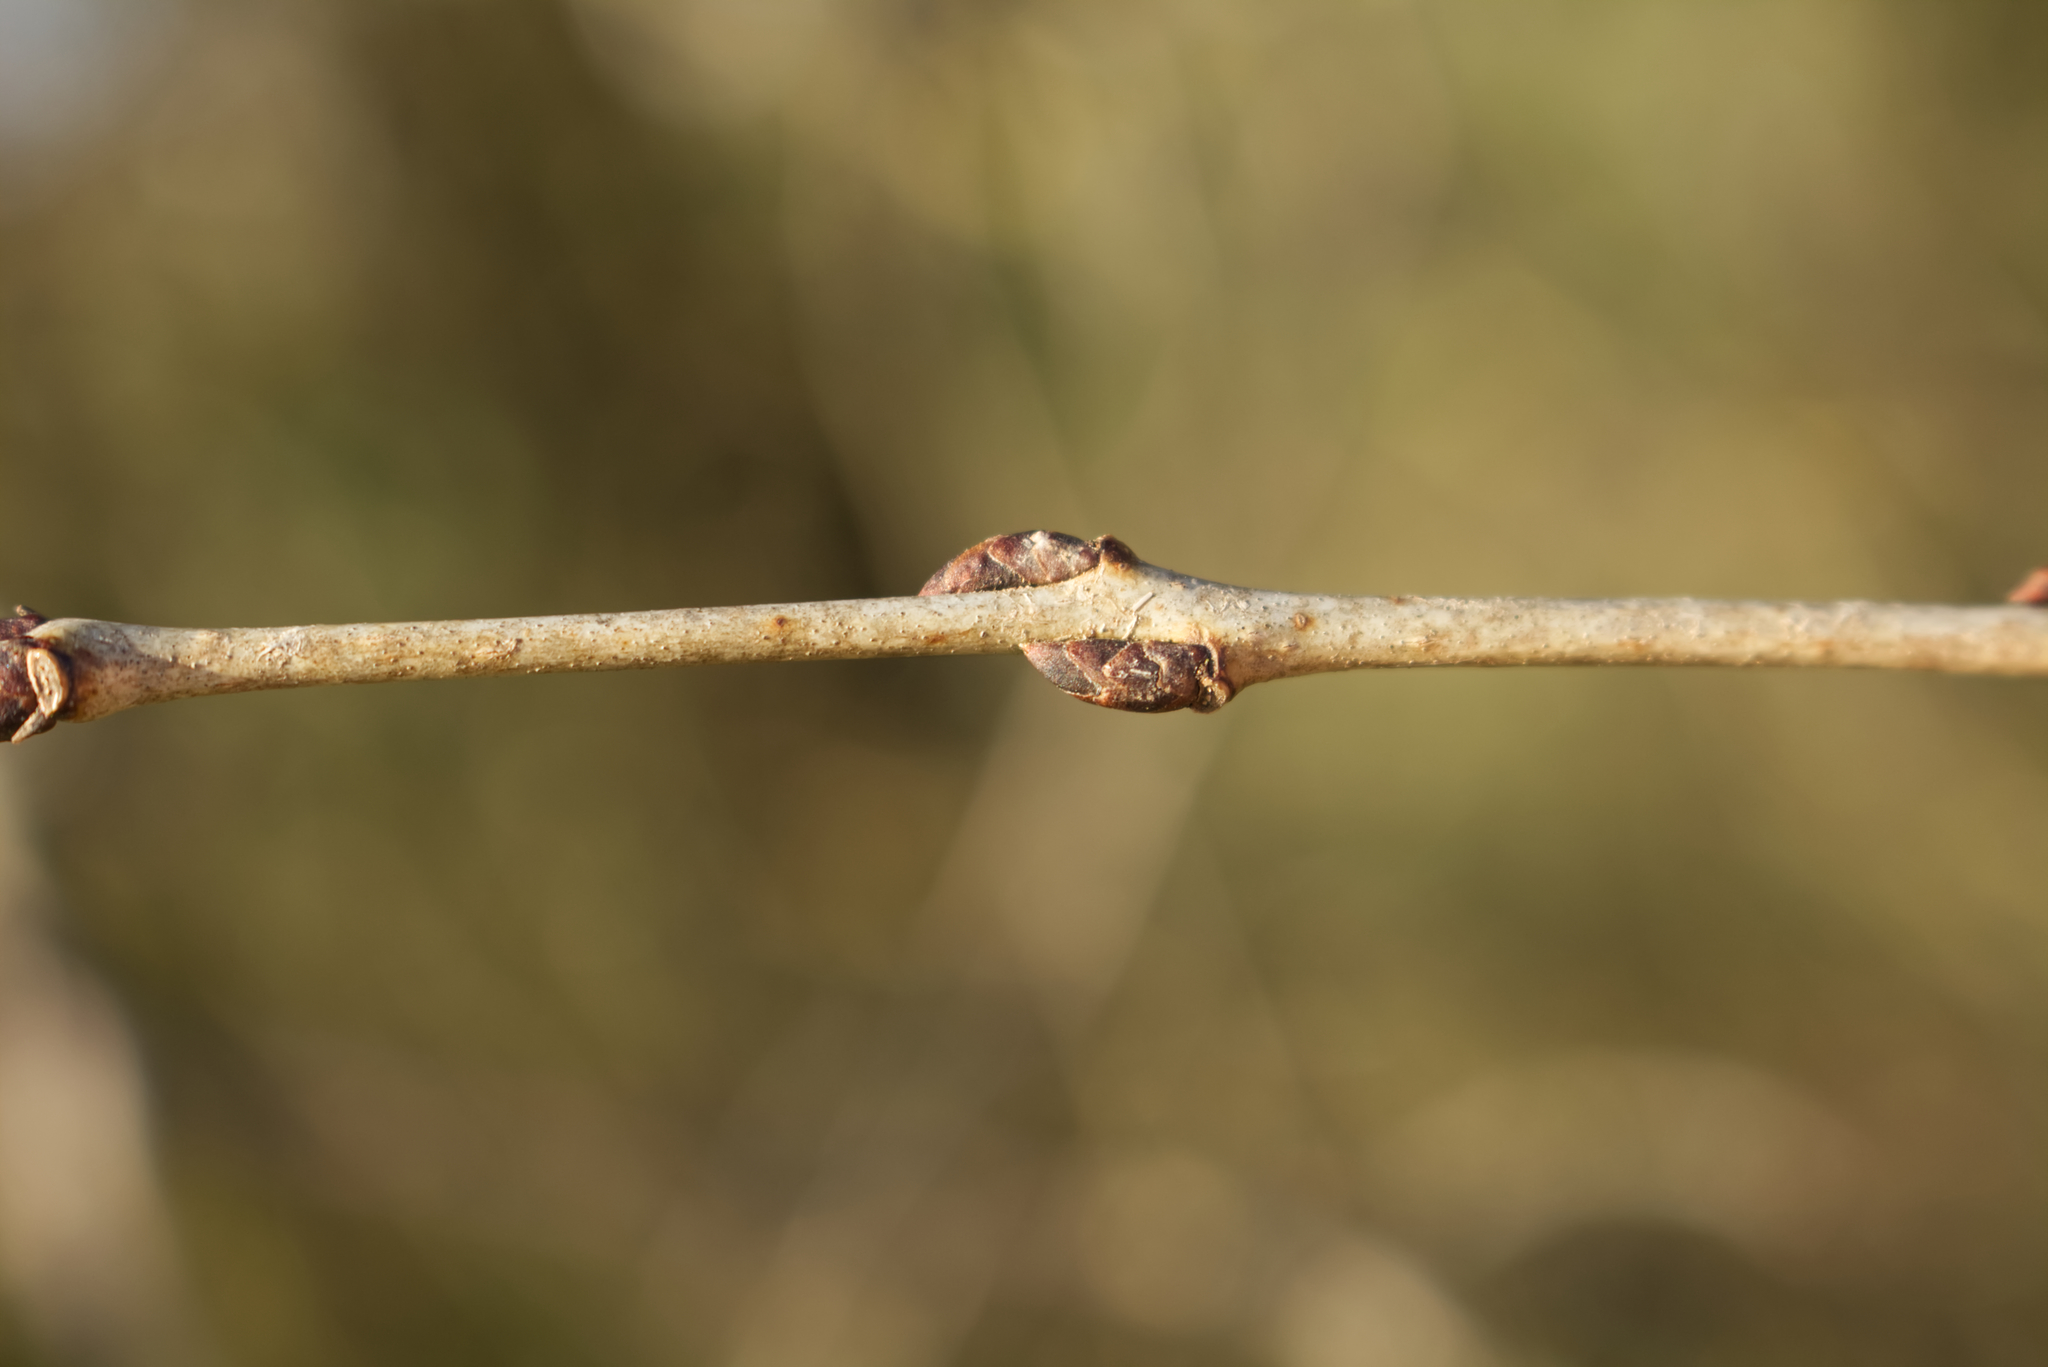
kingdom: Plantae
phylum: Tracheophyta
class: Magnoliopsida
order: Rosales
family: Rhamnaceae
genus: Rhamnus
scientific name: Rhamnus cathartica
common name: Common buckthorn
